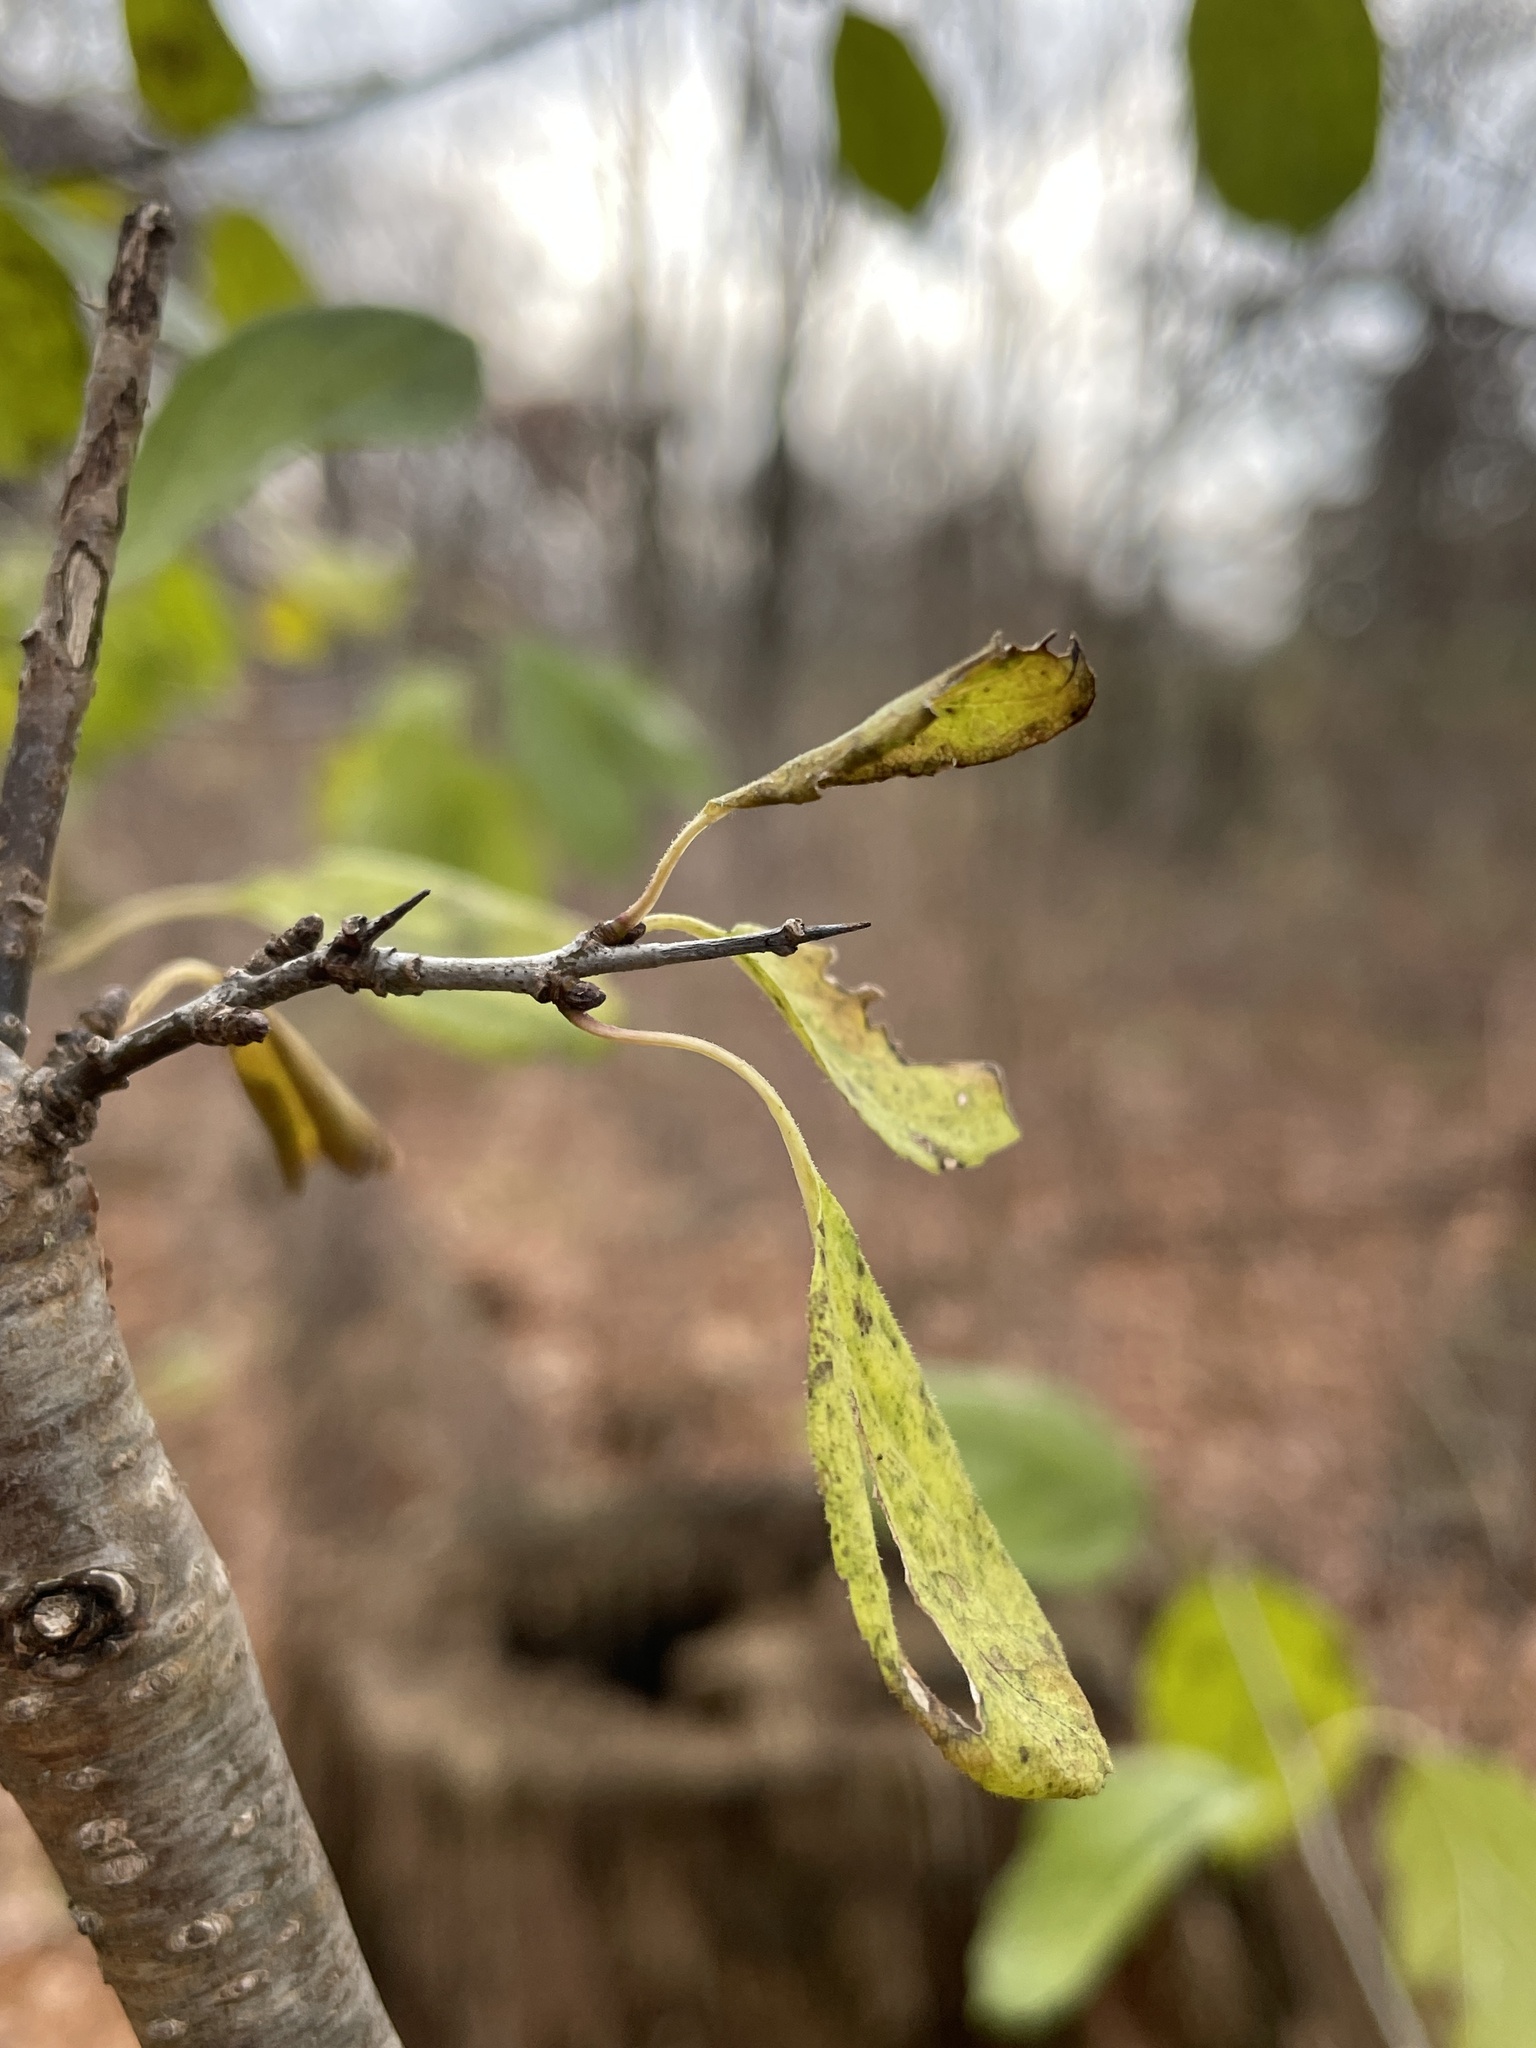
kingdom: Plantae
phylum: Tracheophyta
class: Magnoliopsida
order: Rosales
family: Rhamnaceae
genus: Rhamnus
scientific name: Rhamnus cathartica
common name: Common buckthorn
